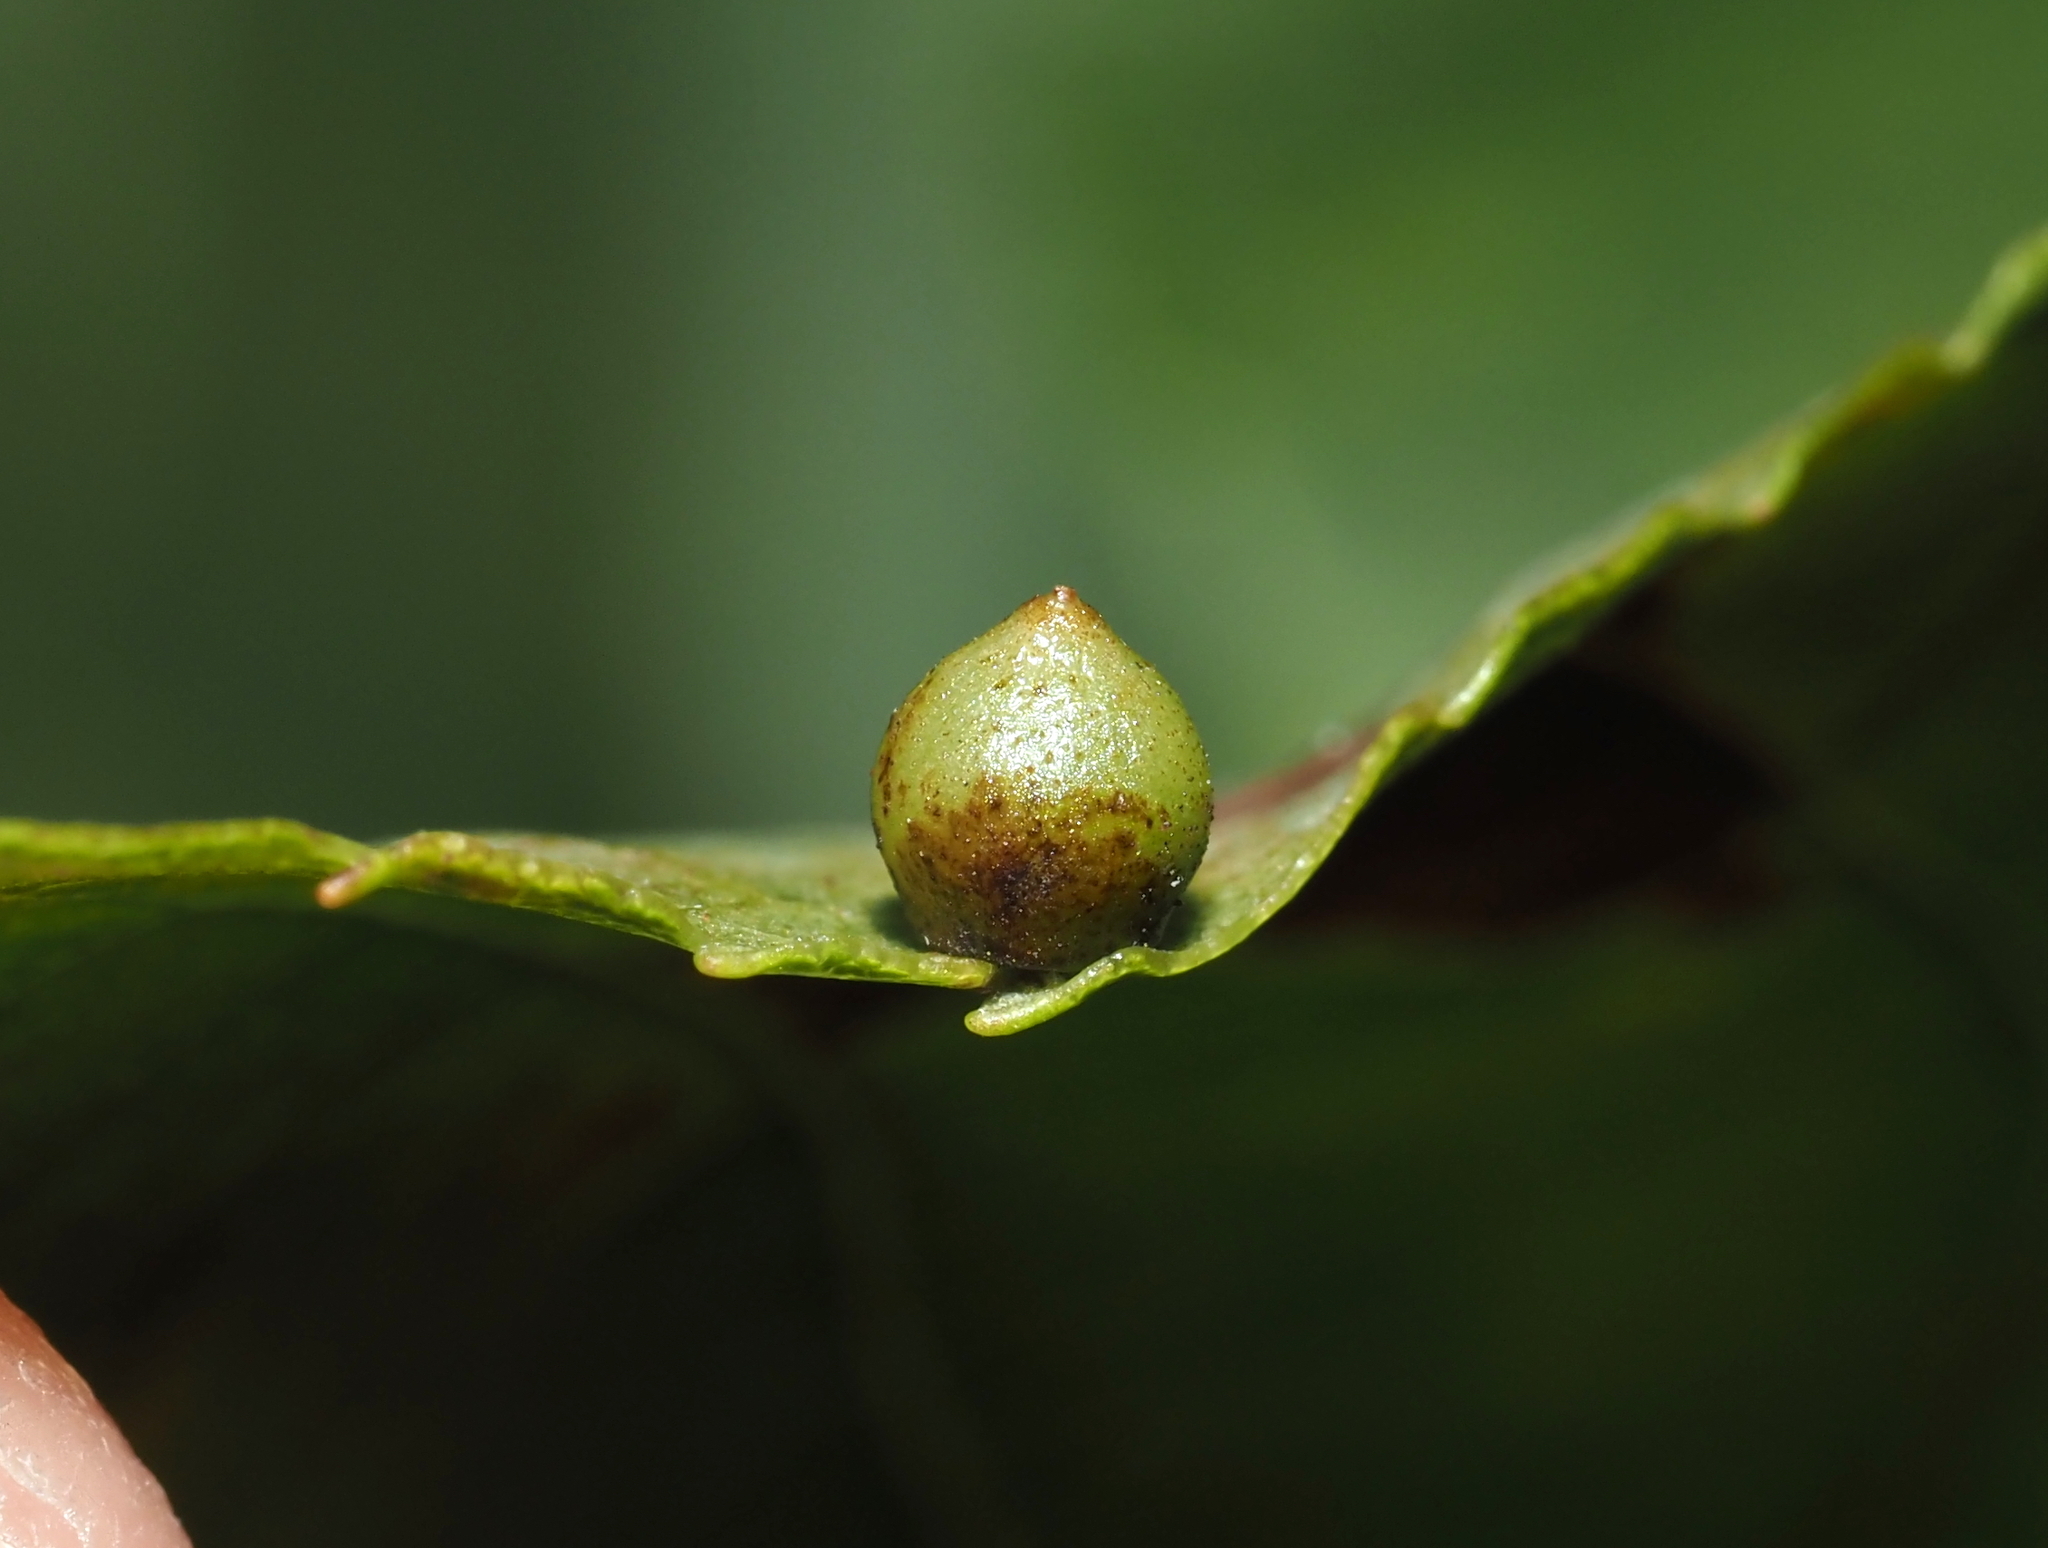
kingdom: Animalia
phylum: Arthropoda
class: Insecta
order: Diptera
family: Cecidomyiidae
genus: Caryomyia
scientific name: Caryomyia caryae
